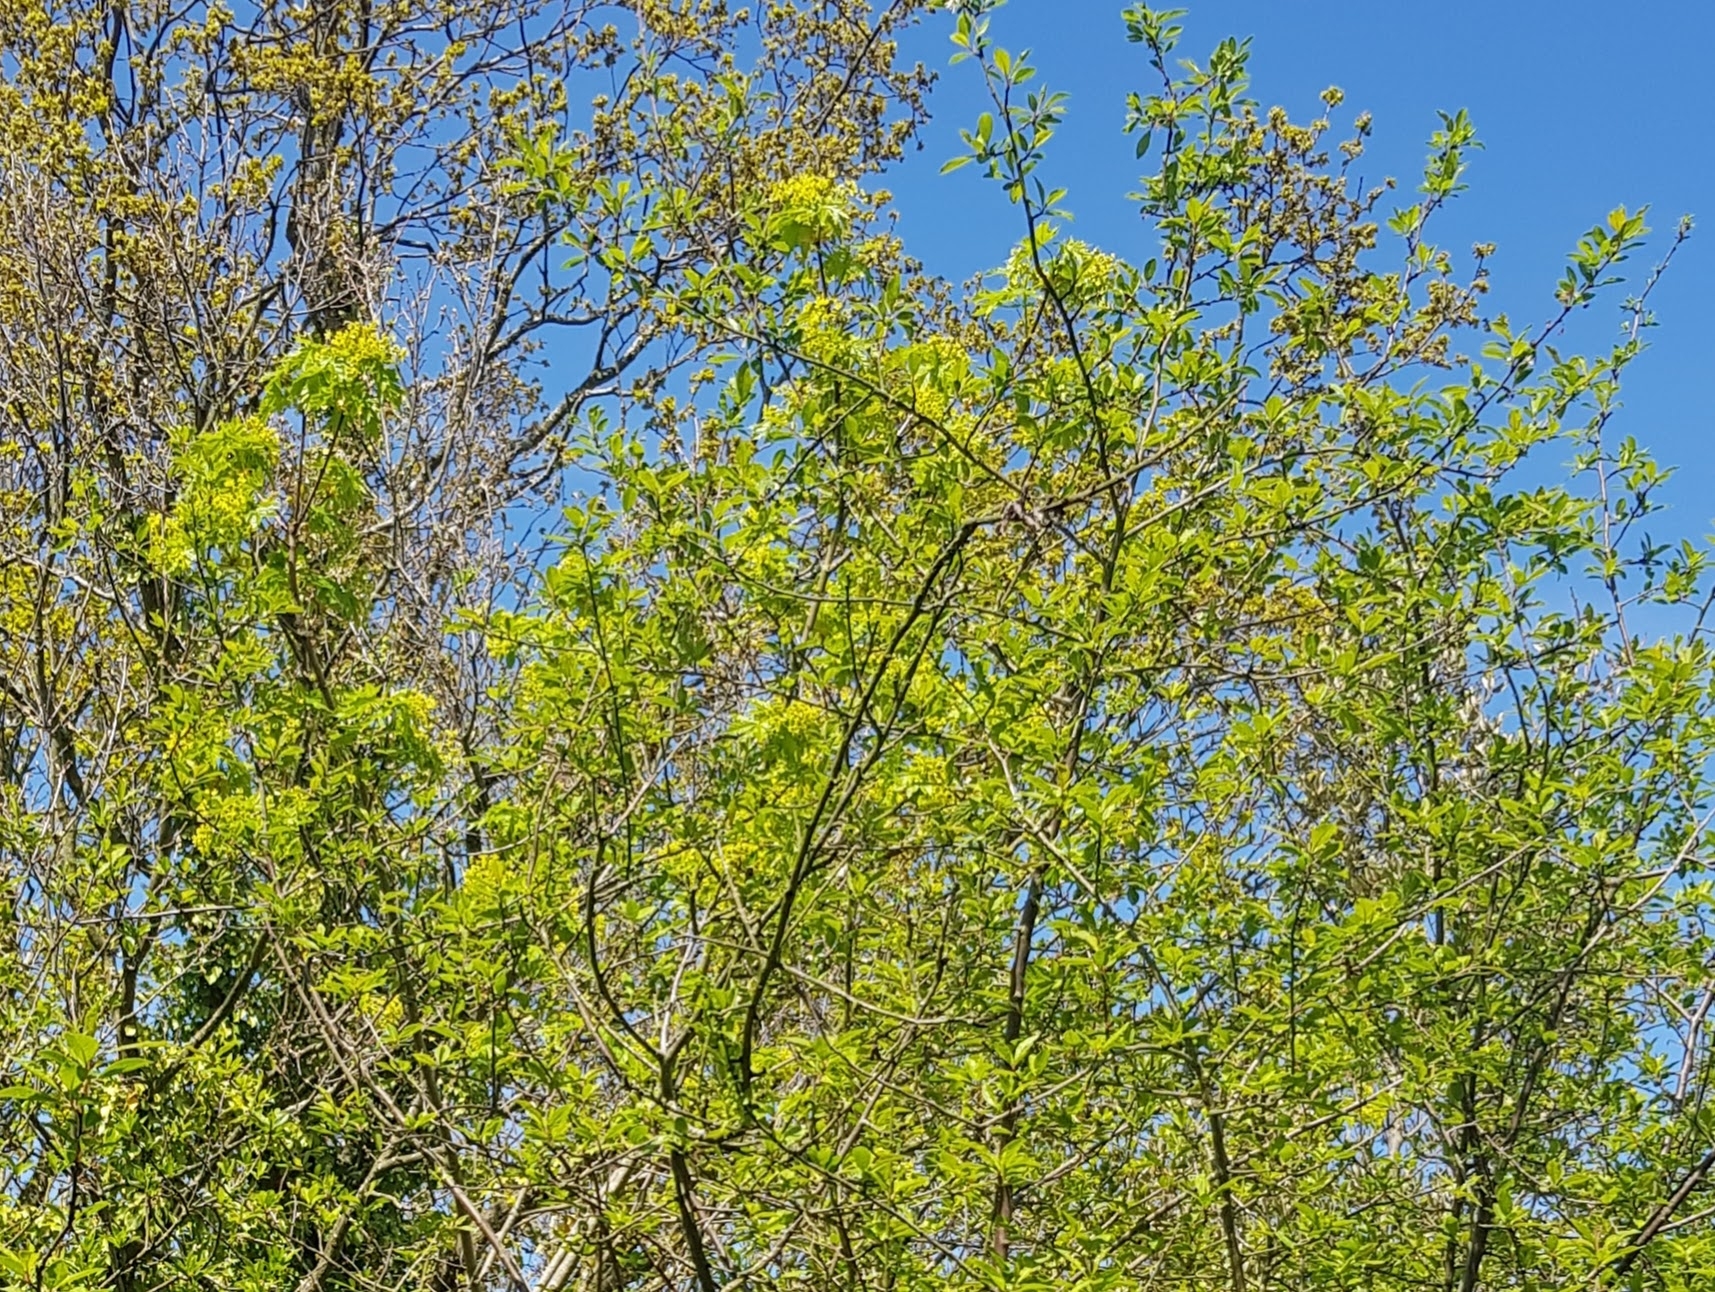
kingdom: Plantae
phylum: Tracheophyta
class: Magnoliopsida
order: Sapindales
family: Sapindaceae
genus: Acer
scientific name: Acer platanoides
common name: Norway maple
